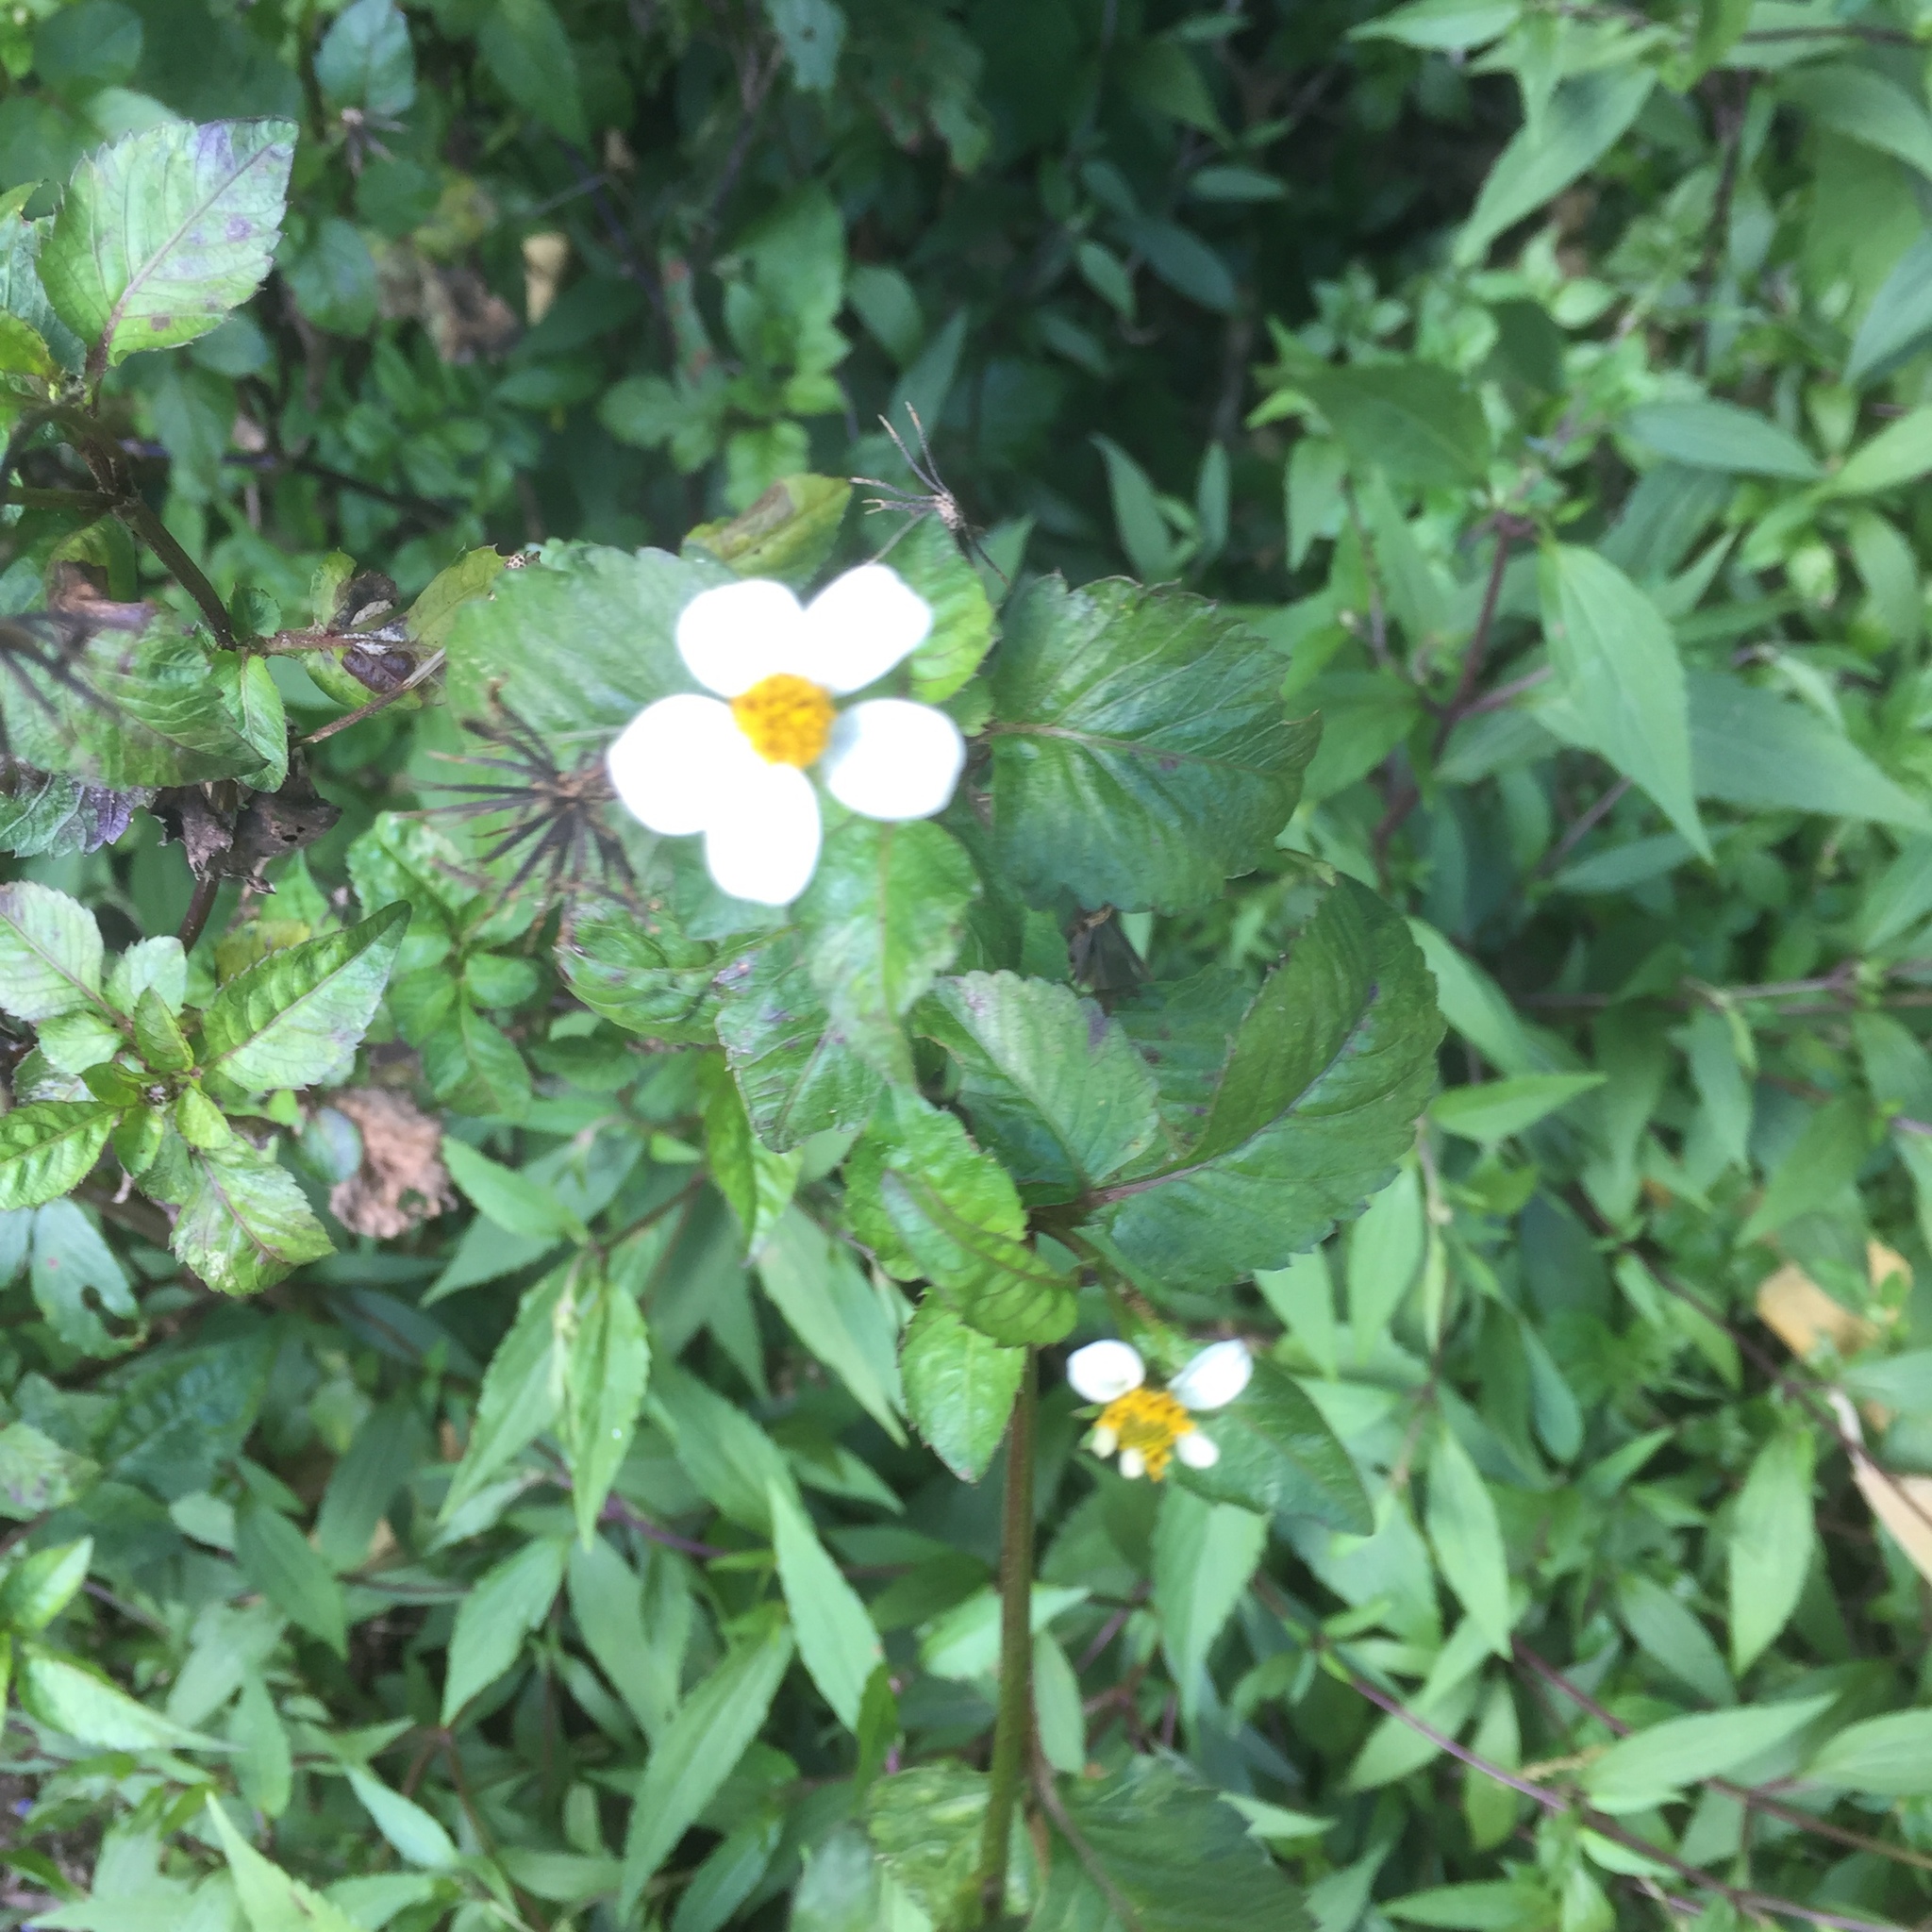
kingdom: Plantae
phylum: Tracheophyta
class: Magnoliopsida
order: Asterales
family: Asteraceae
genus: Bidens
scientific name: Bidens pilosa
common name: Black-jack
